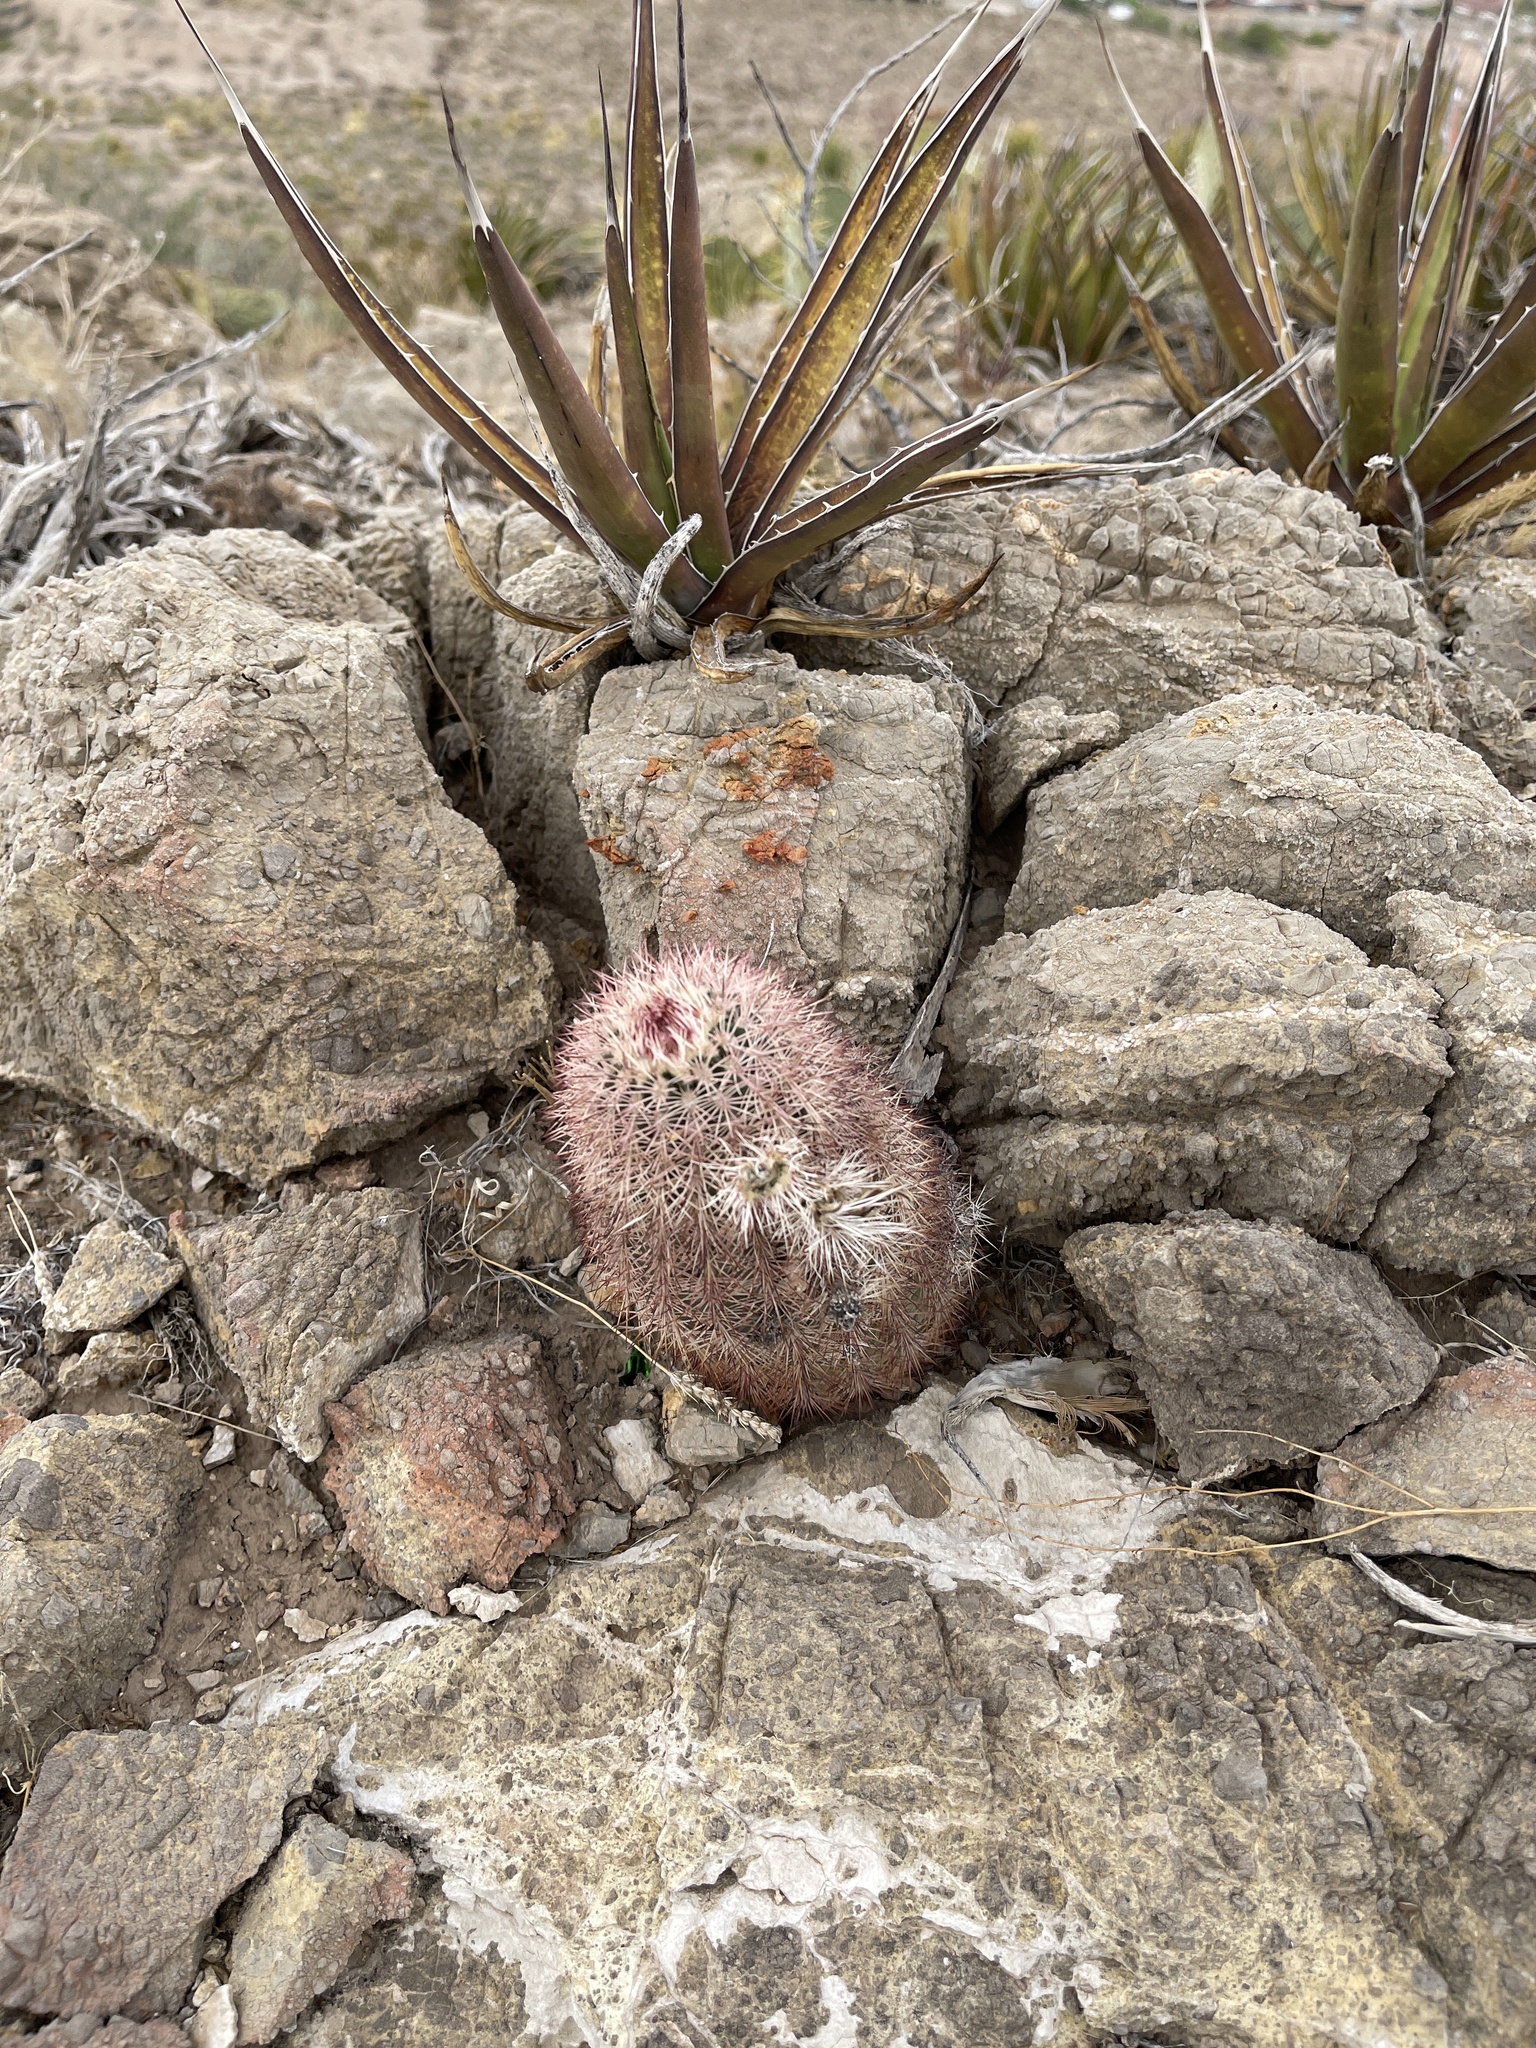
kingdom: Plantae
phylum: Tracheophyta
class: Magnoliopsida
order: Caryophyllales
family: Cactaceae
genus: Echinocereus
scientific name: Echinocereus dasyacanthus
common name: Spiny hedgehog cactus
